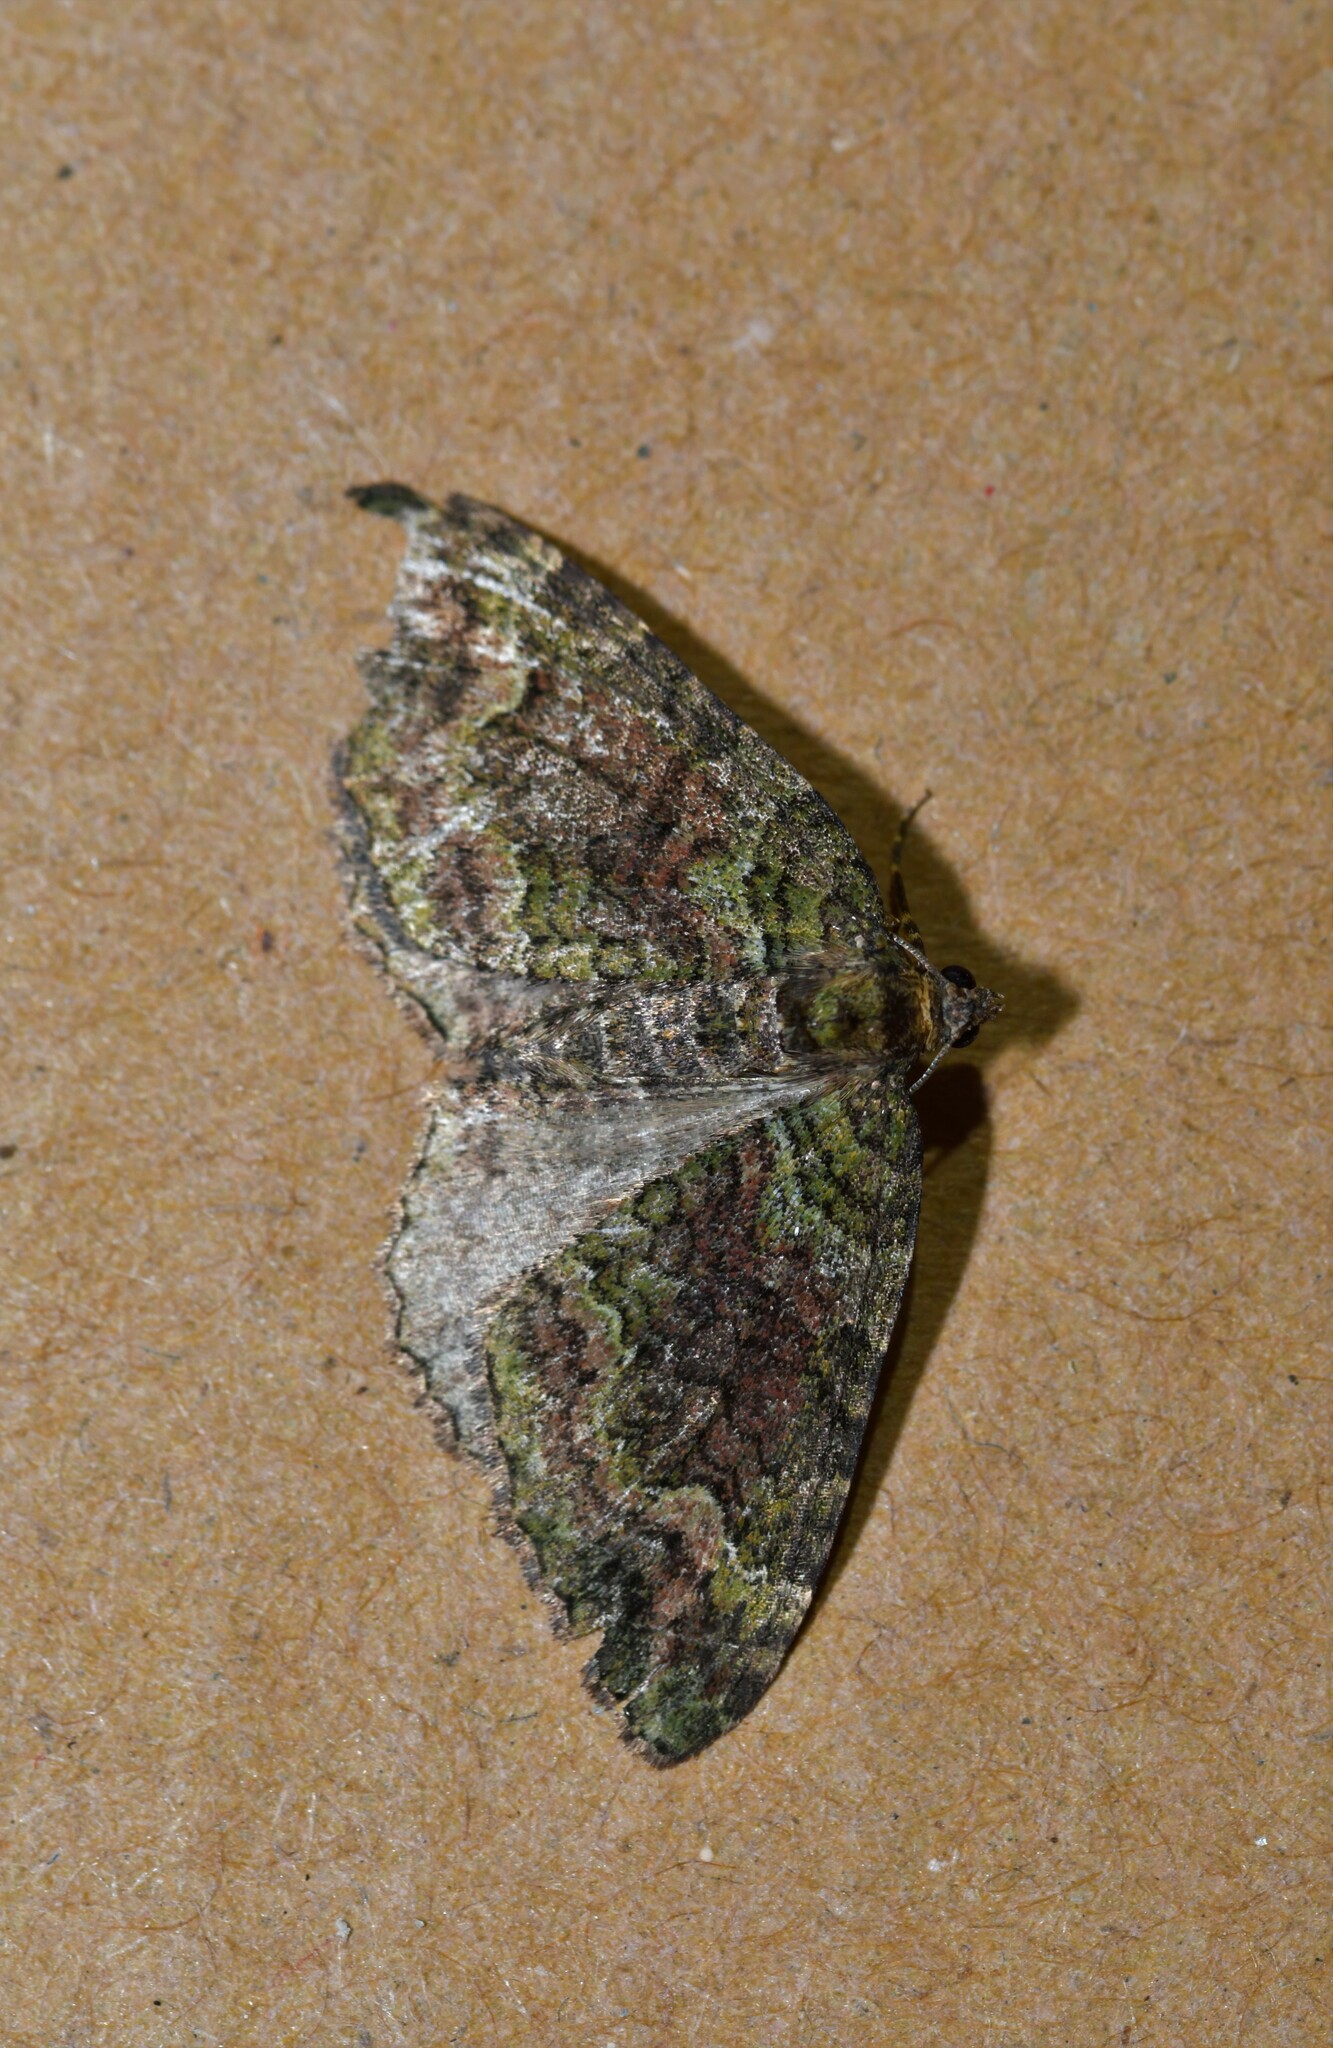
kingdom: Animalia
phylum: Arthropoda
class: Insecta
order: Lepidoptera
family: Geometridae
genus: Catarhoe
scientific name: Catarhoe basochesiata
